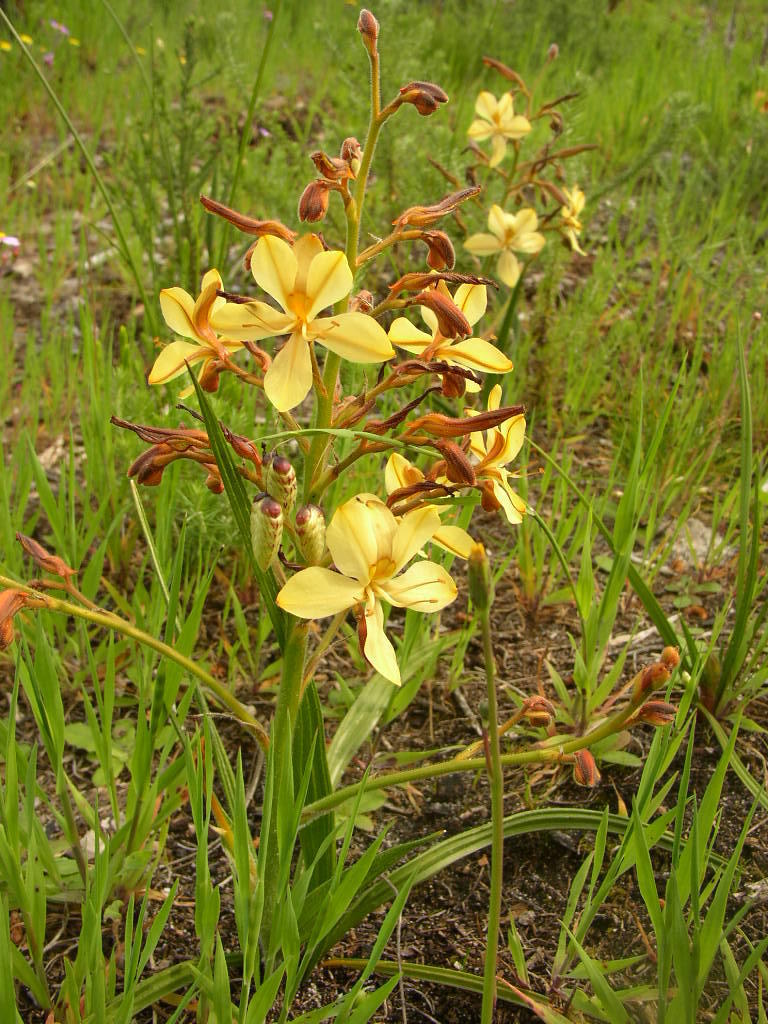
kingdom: Plantae
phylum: Tracheophyta
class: Liliopsida
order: Commelinales
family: Haemodoraceae
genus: Wachendorfia
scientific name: Wachendorfia paniculata
